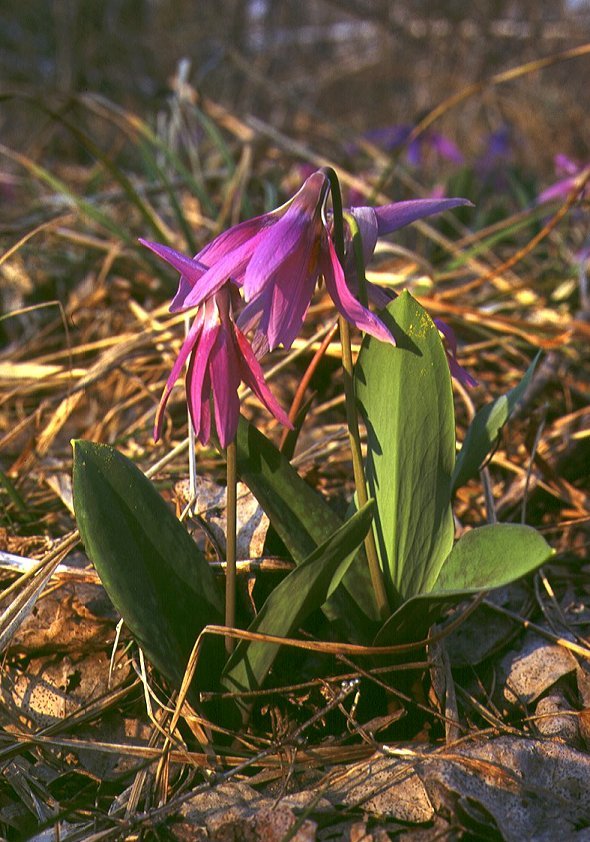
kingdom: Plantae
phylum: Tracheophyta
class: Liliopsida
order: Liliales
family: Liliaceae
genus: Erythronium
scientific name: Erythronium sibiricum
